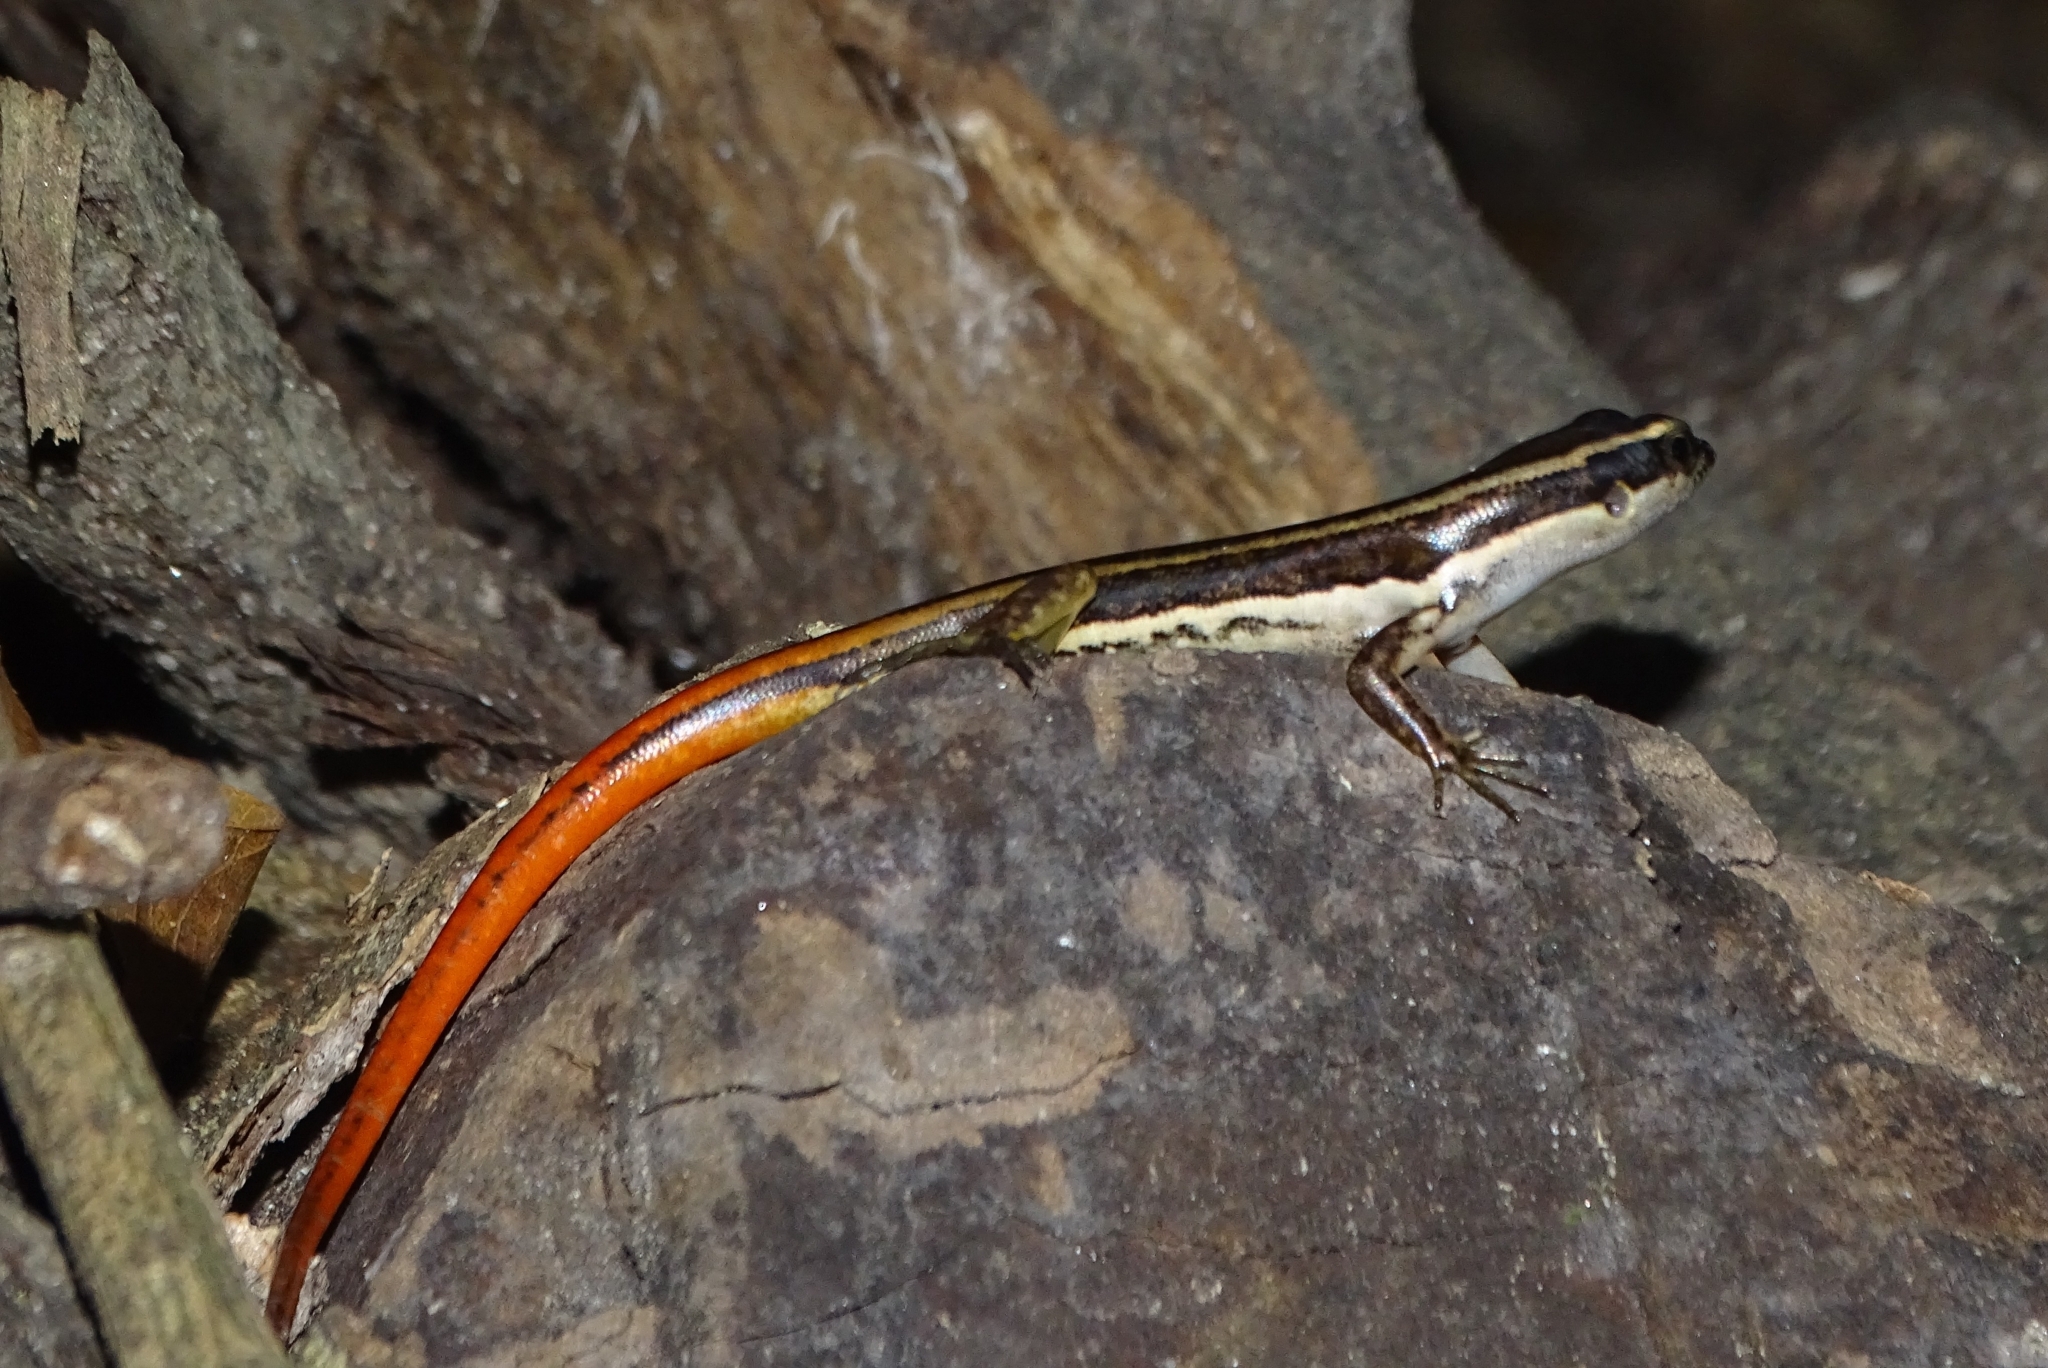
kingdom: Animalia
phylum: Chordata
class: Squamata
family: Scincidae
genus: Sphenomorphus
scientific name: Sphenomorphus dussumieri
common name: Dussumier's forest skink
